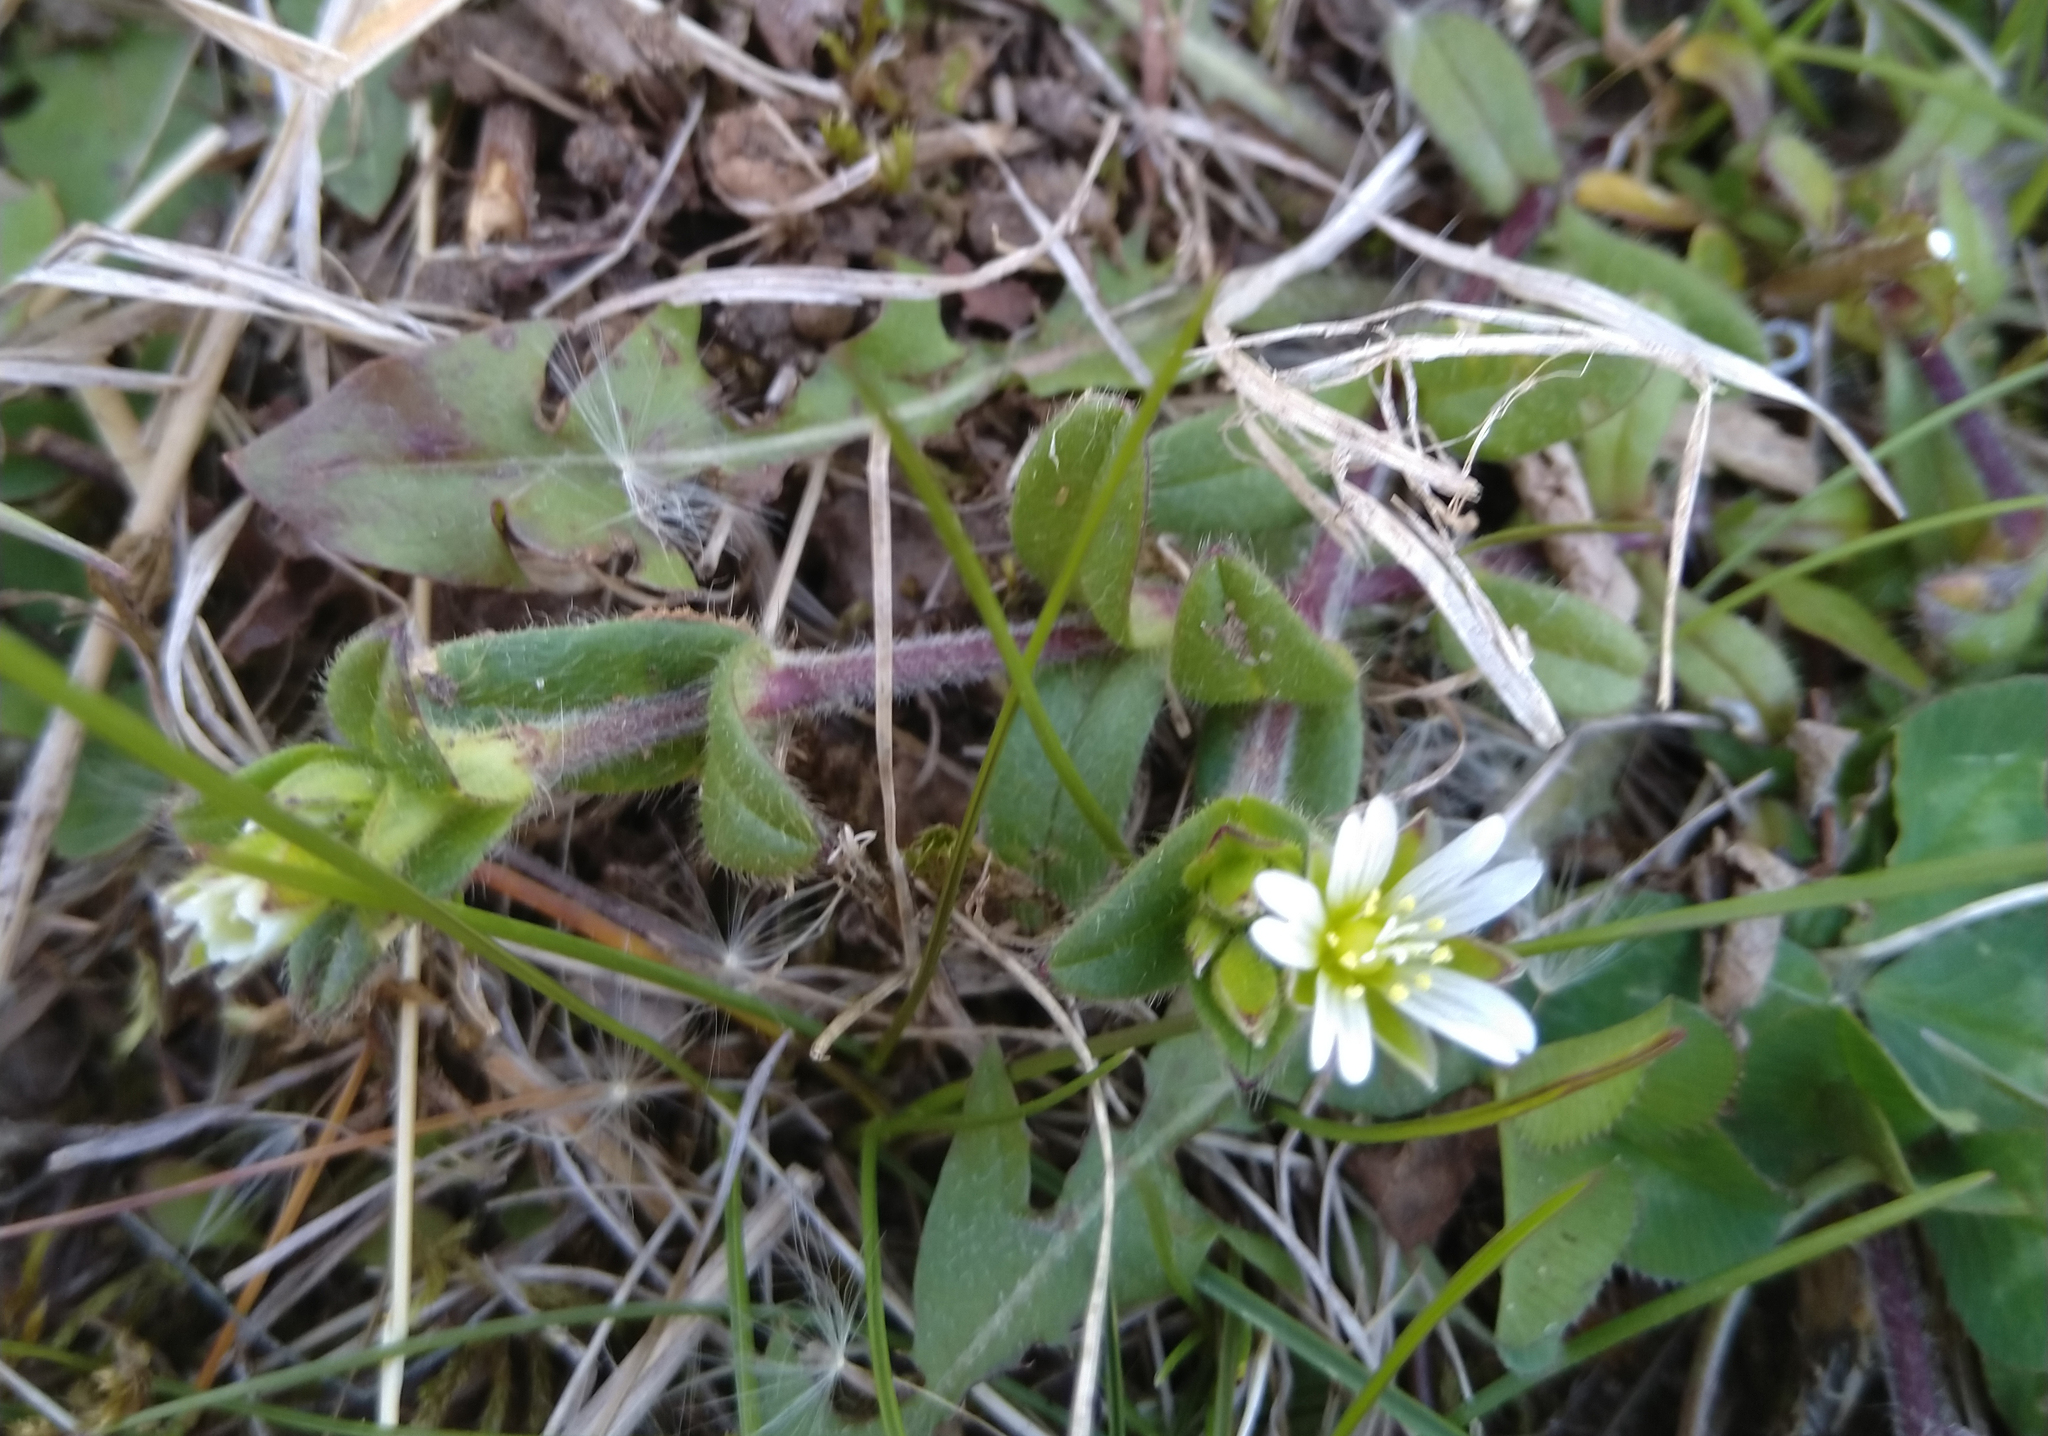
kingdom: Plantae
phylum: Tracheophyta
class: Magnoliopsida
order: Caryophyllales
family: Caryophyllaceae
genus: Cerastium
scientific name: Cerastium fontanum
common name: Common mouse-ear
